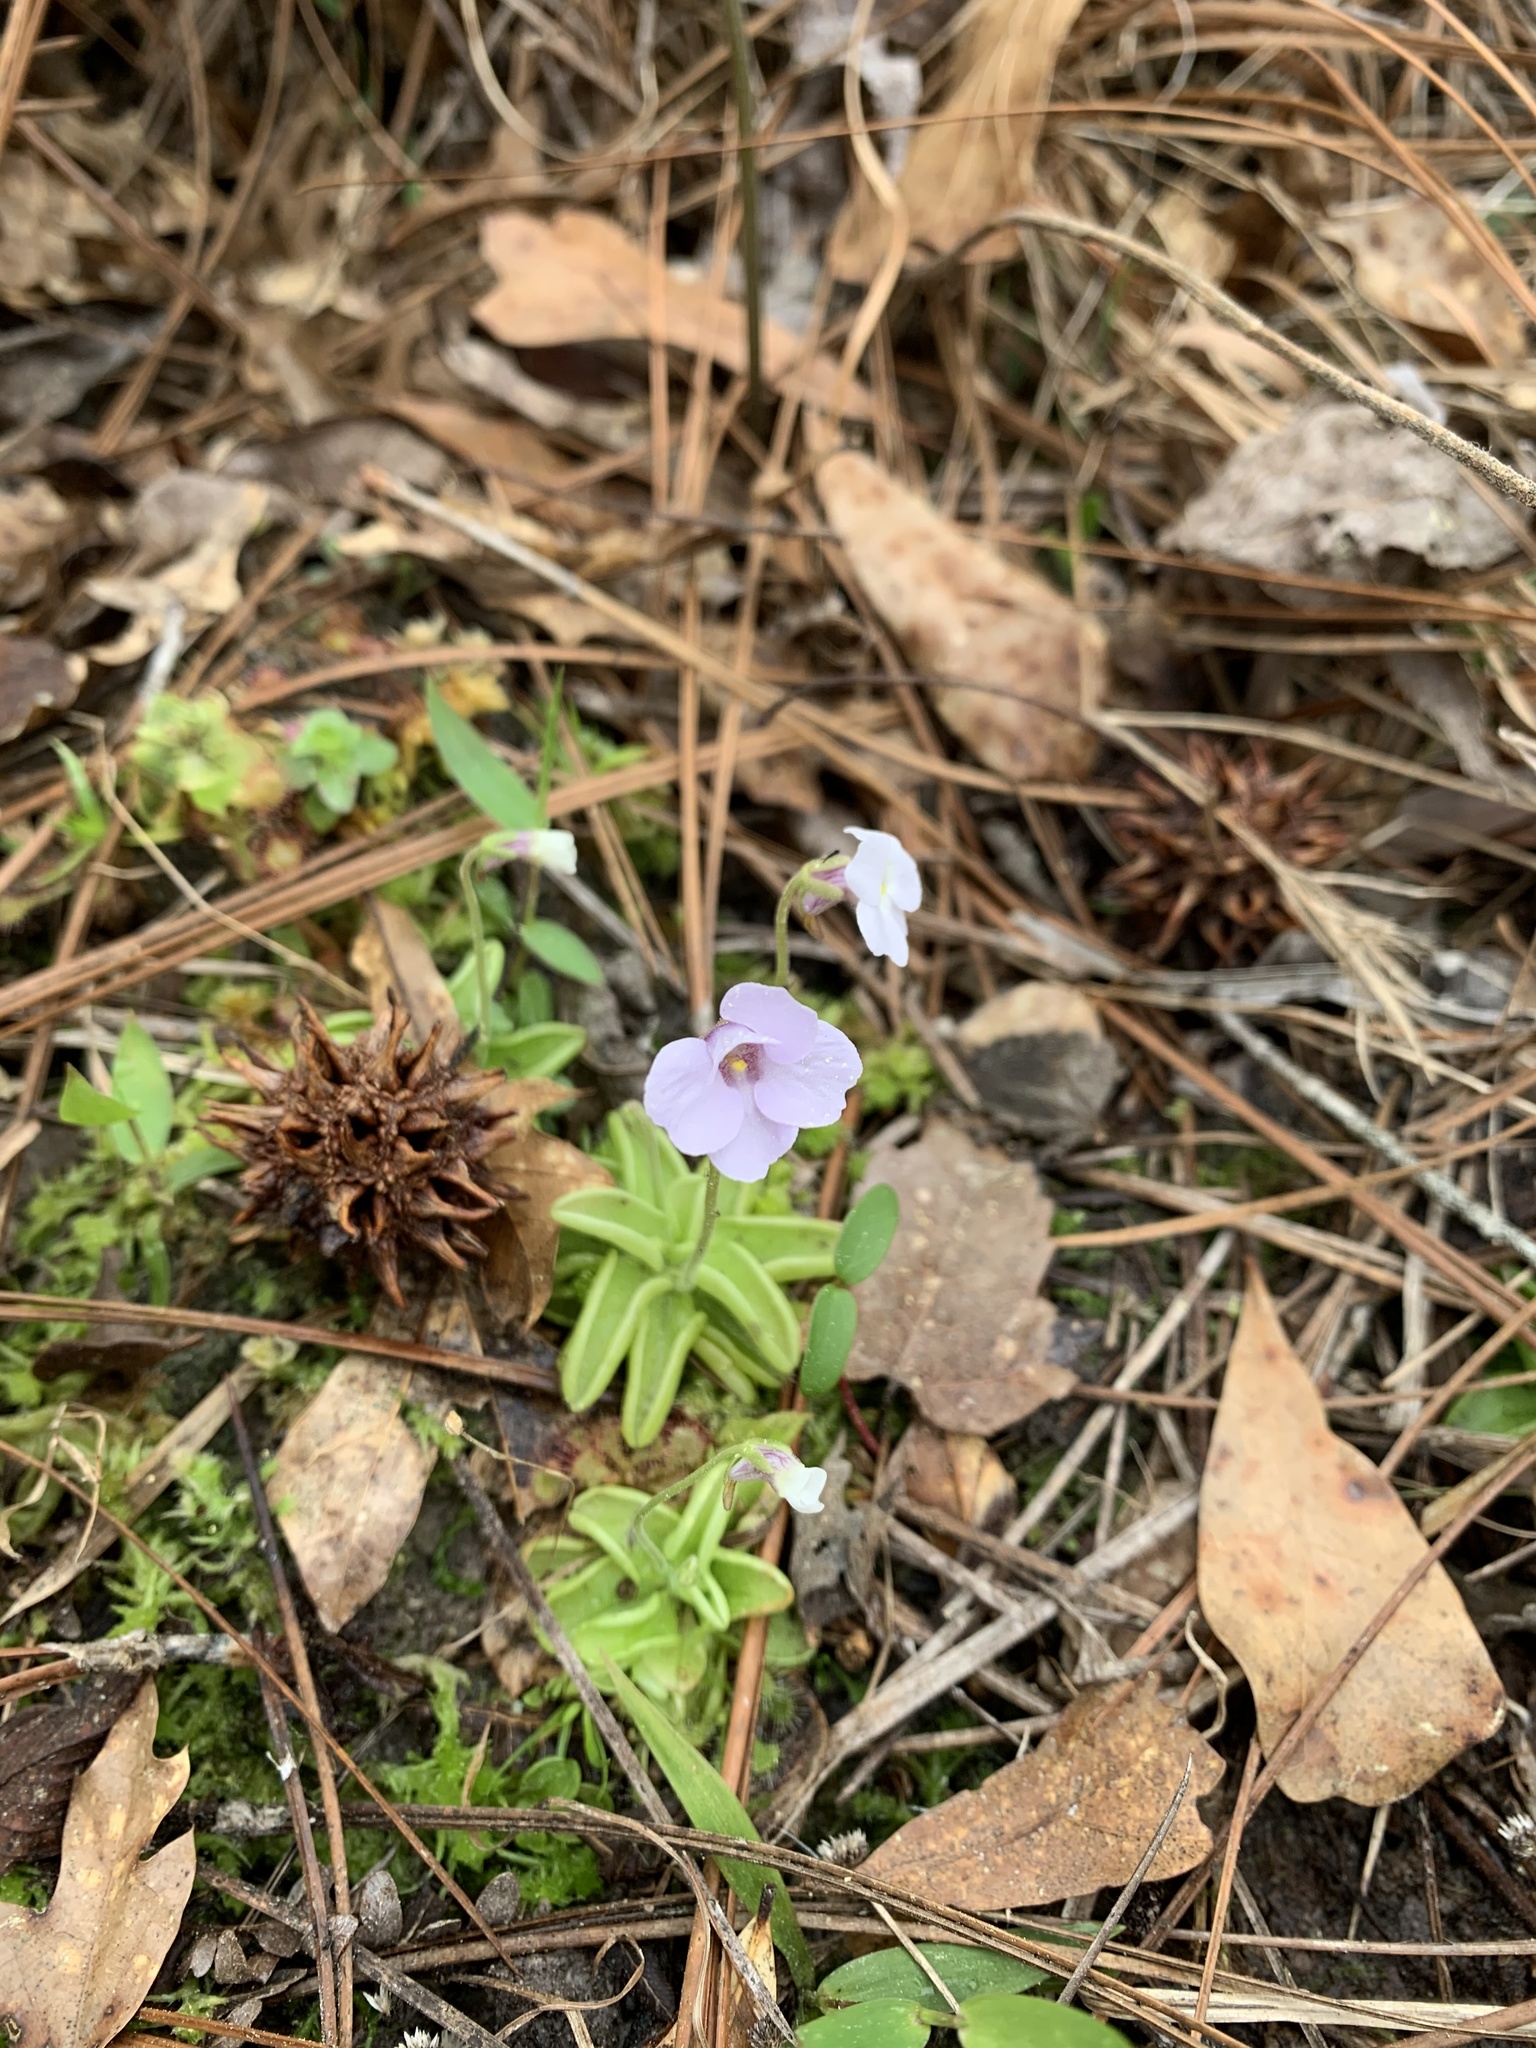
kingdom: Plantae
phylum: Tracheophyta
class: Magnoliopsida
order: Lamiales
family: Lentibulariaceae
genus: Pinguicula
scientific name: Pinguicula pumila
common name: Small butterwort
